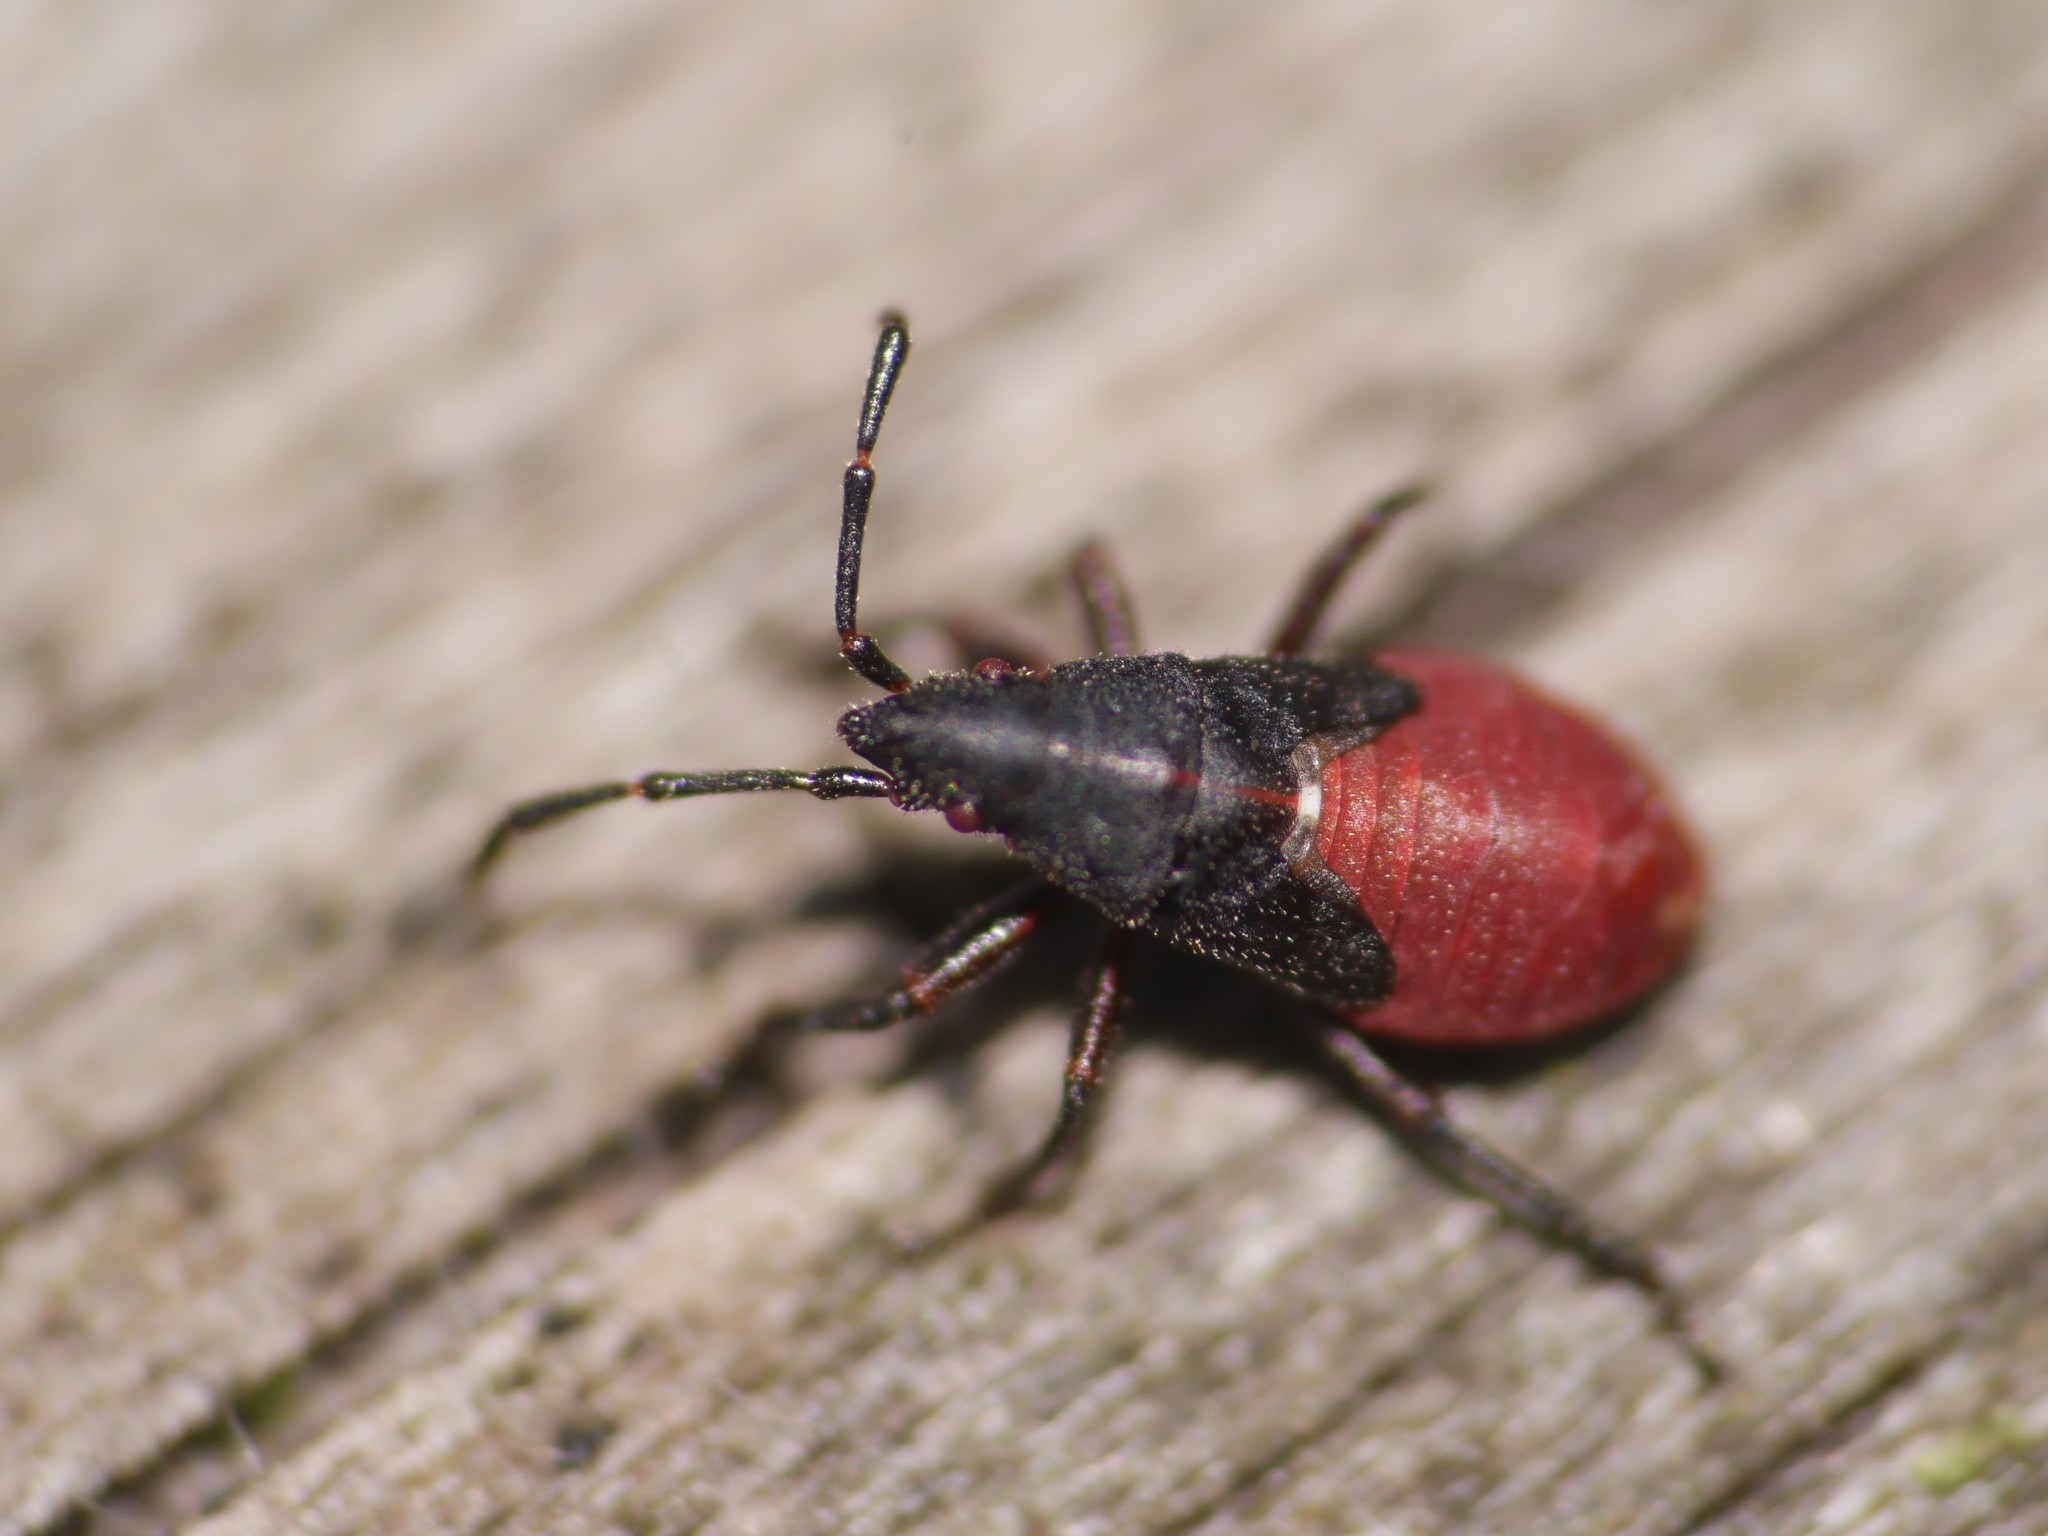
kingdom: Animalia
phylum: Arthropoda
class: Insecta
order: Hemiptera
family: Oxycarenidae
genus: Oxycarenus
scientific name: Oxycarenus lavaterae
